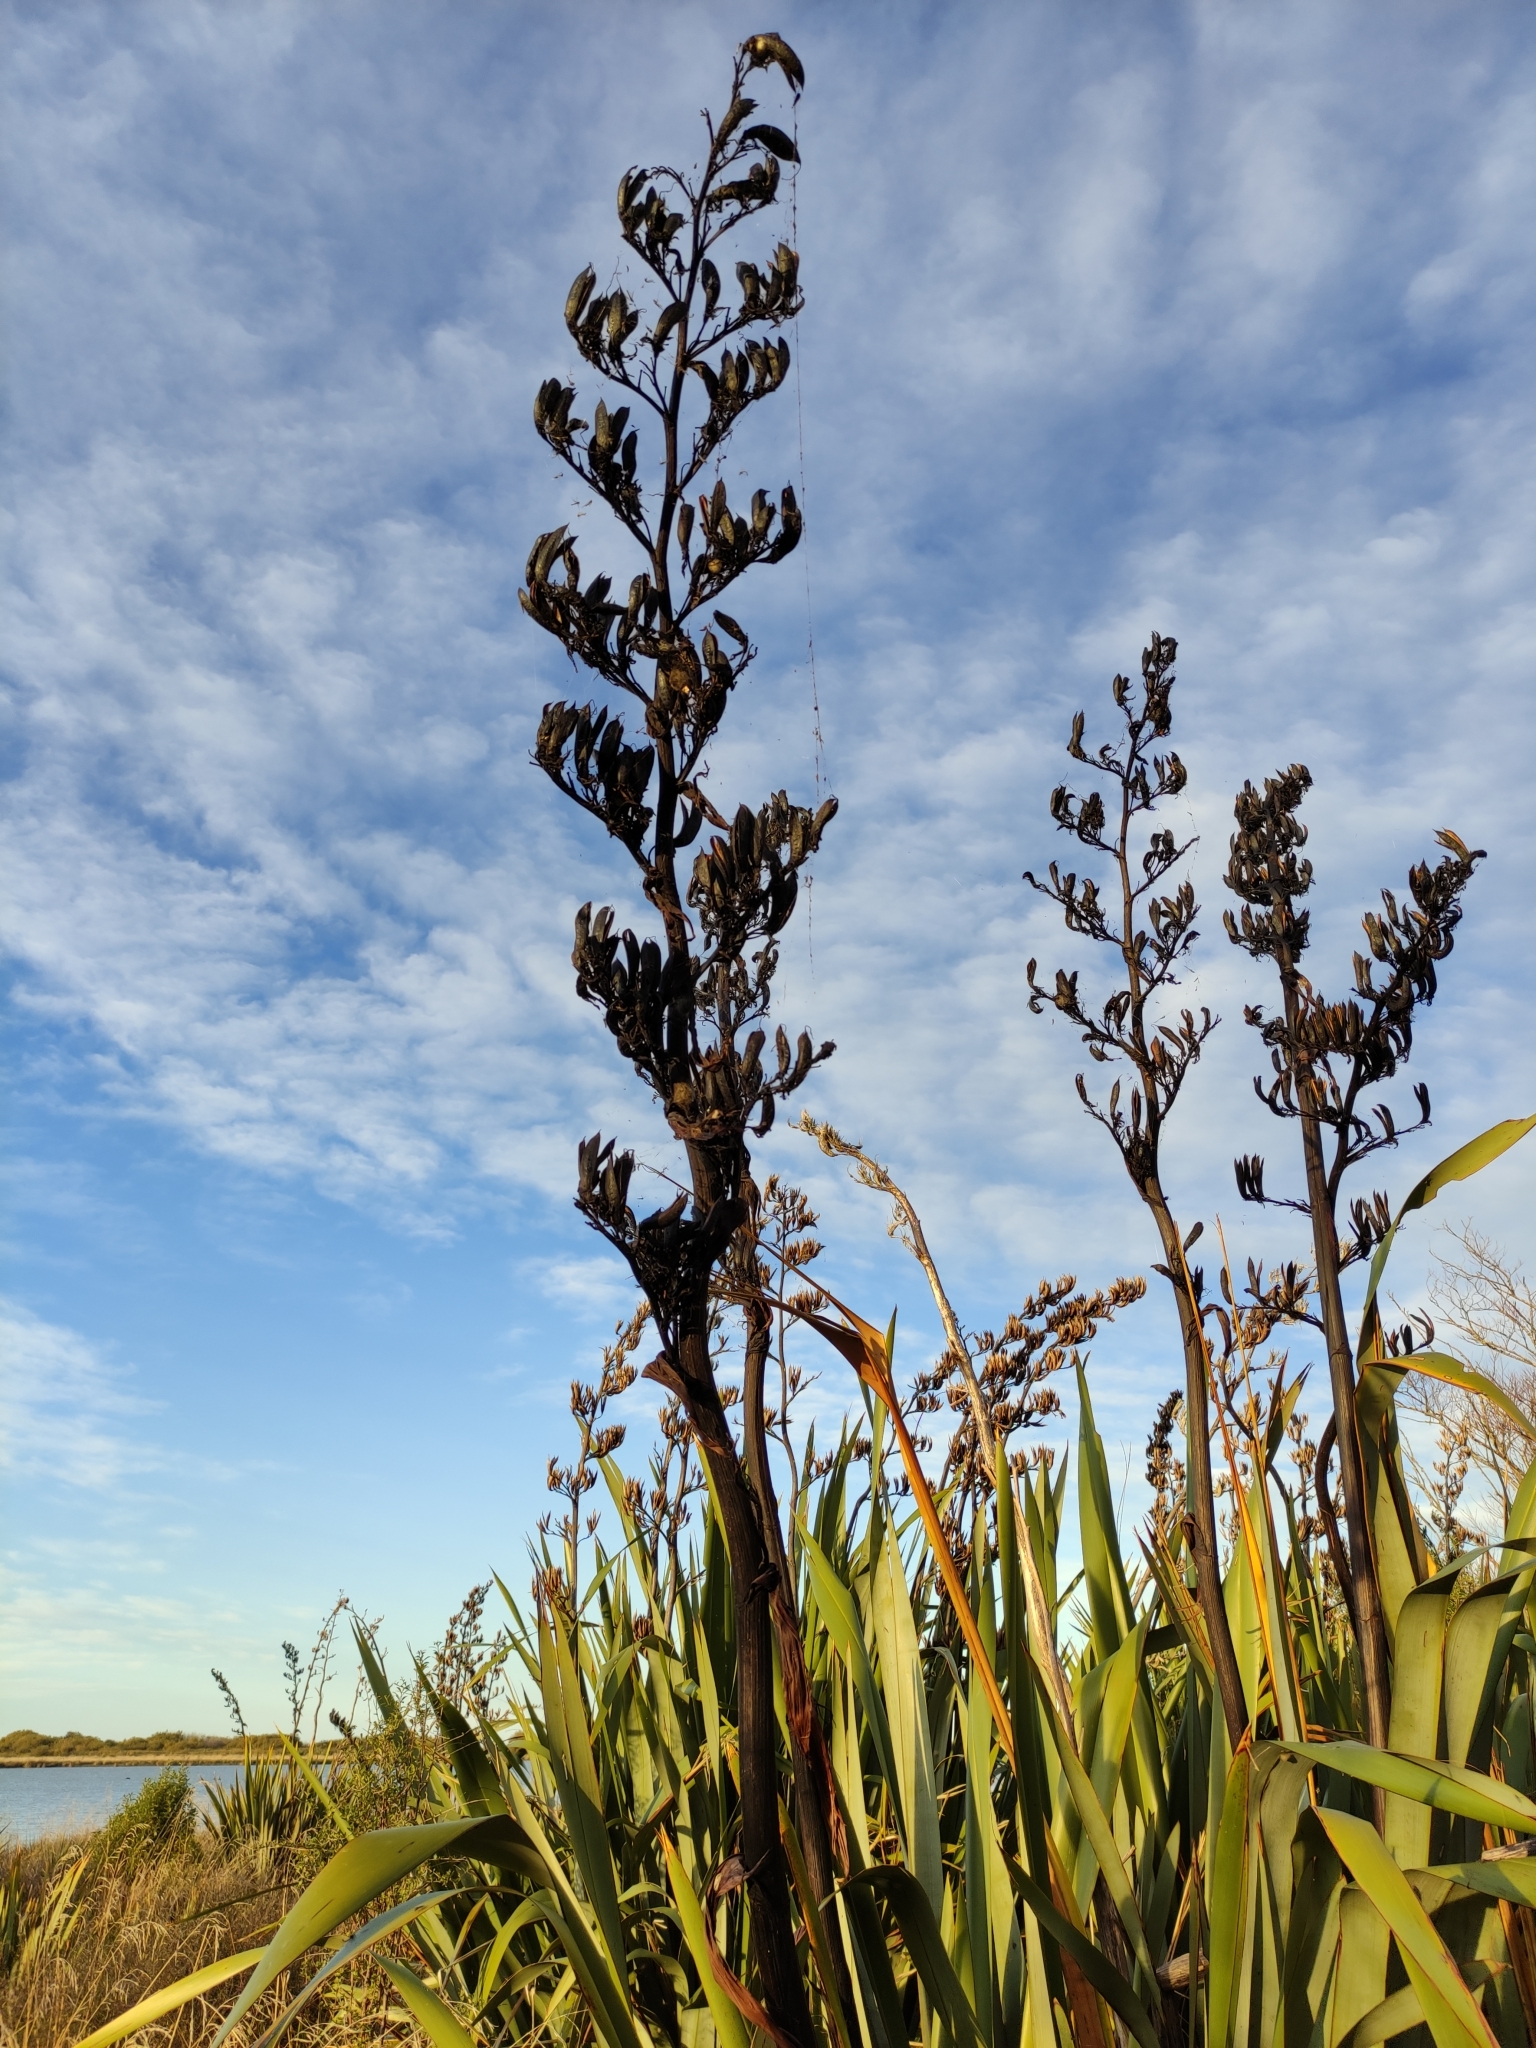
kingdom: Plantae
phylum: Tracheophyta
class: Liliopsida
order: Asparagales
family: Asphodelaceae
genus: Phormium
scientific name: Phormium tenax
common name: New zealand flax
